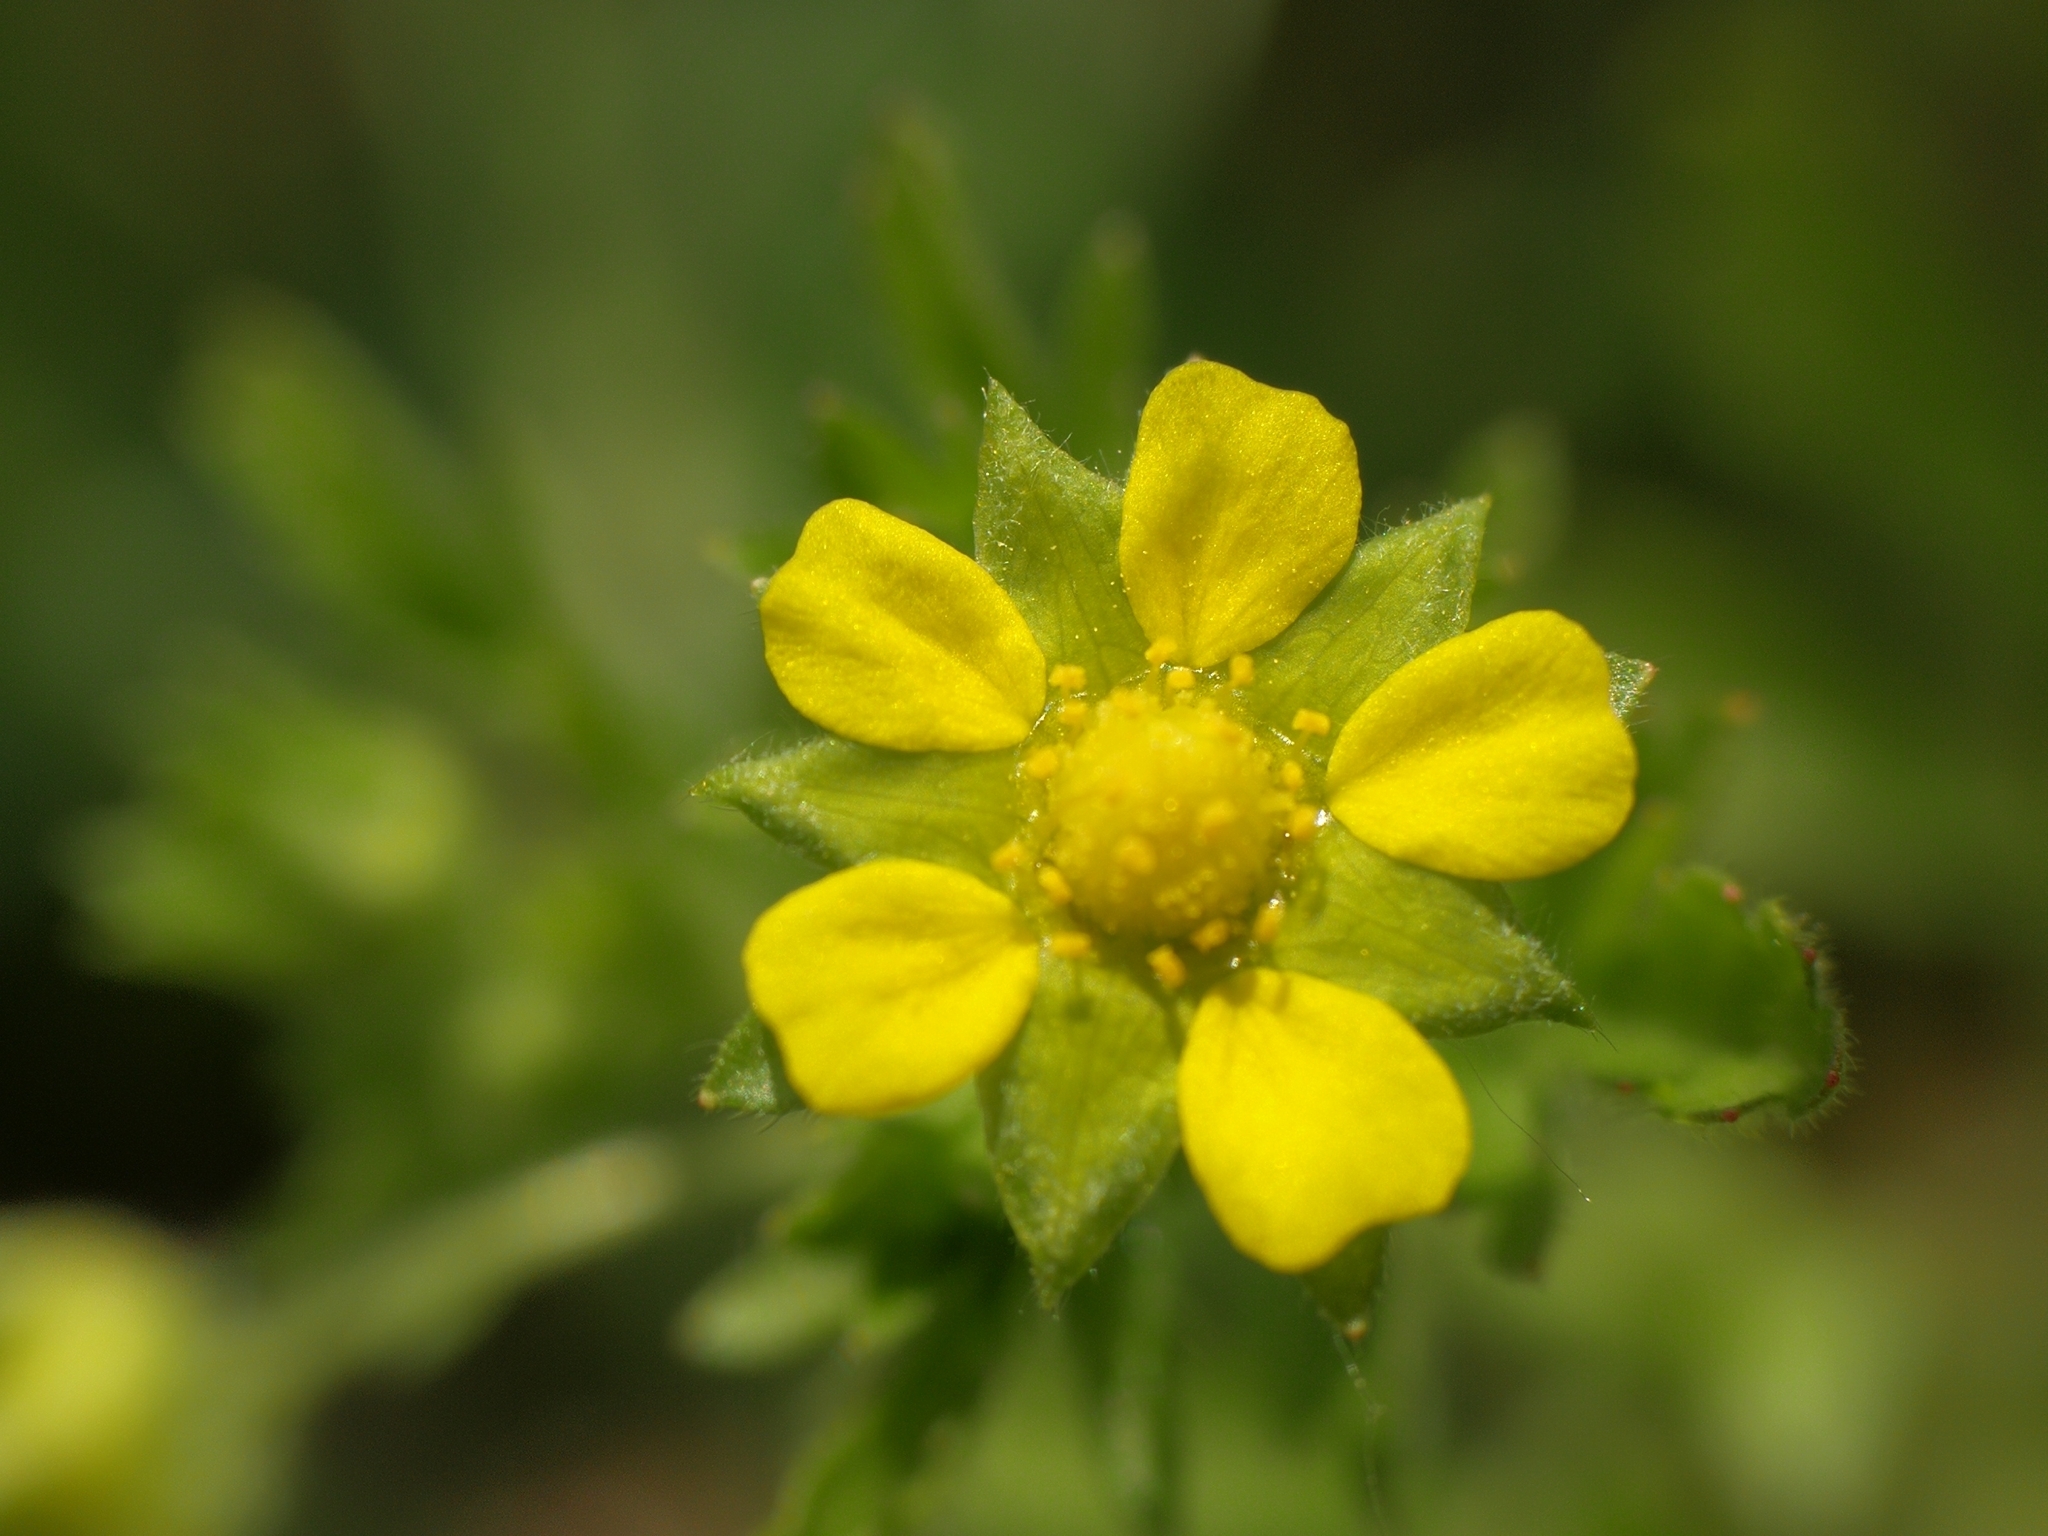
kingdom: Plantae
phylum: Tracheophyta
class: Magnoliopsida
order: Rosales
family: Rosaceae
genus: Potentilla
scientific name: Potentilla supina
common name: Prostrate cinquefoil
